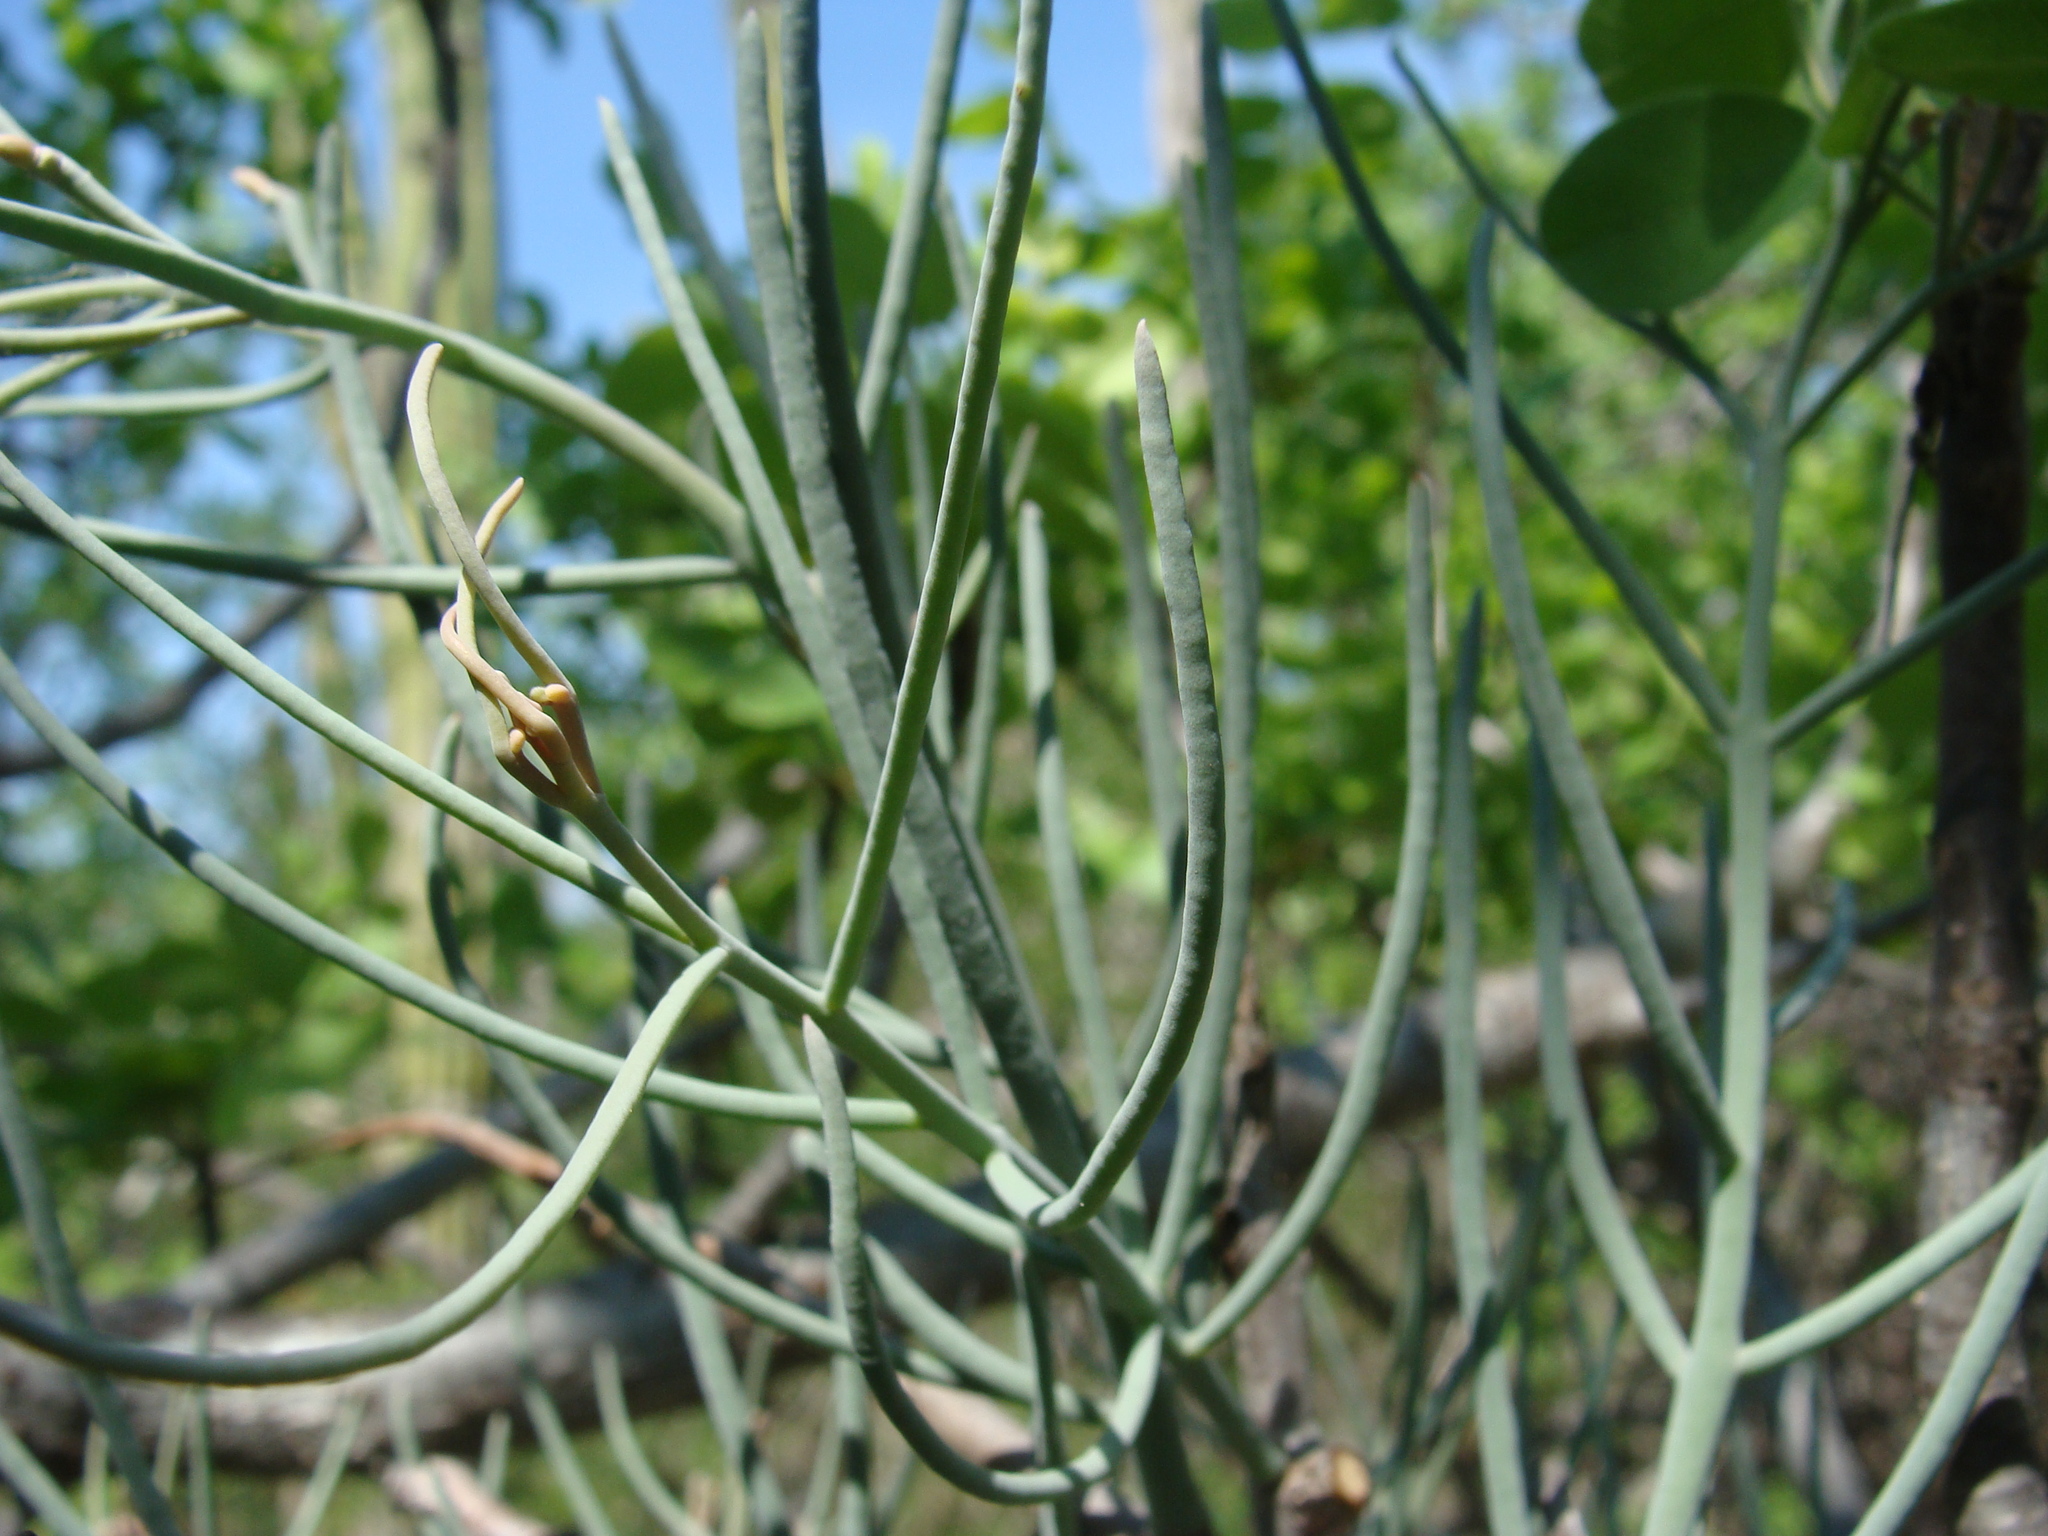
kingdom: Plantae
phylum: Tracheophyta
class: Magnoliopsida
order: Santalales
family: Loranthaceae
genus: Psittacanthus
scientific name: Psittacanthus sonorae
